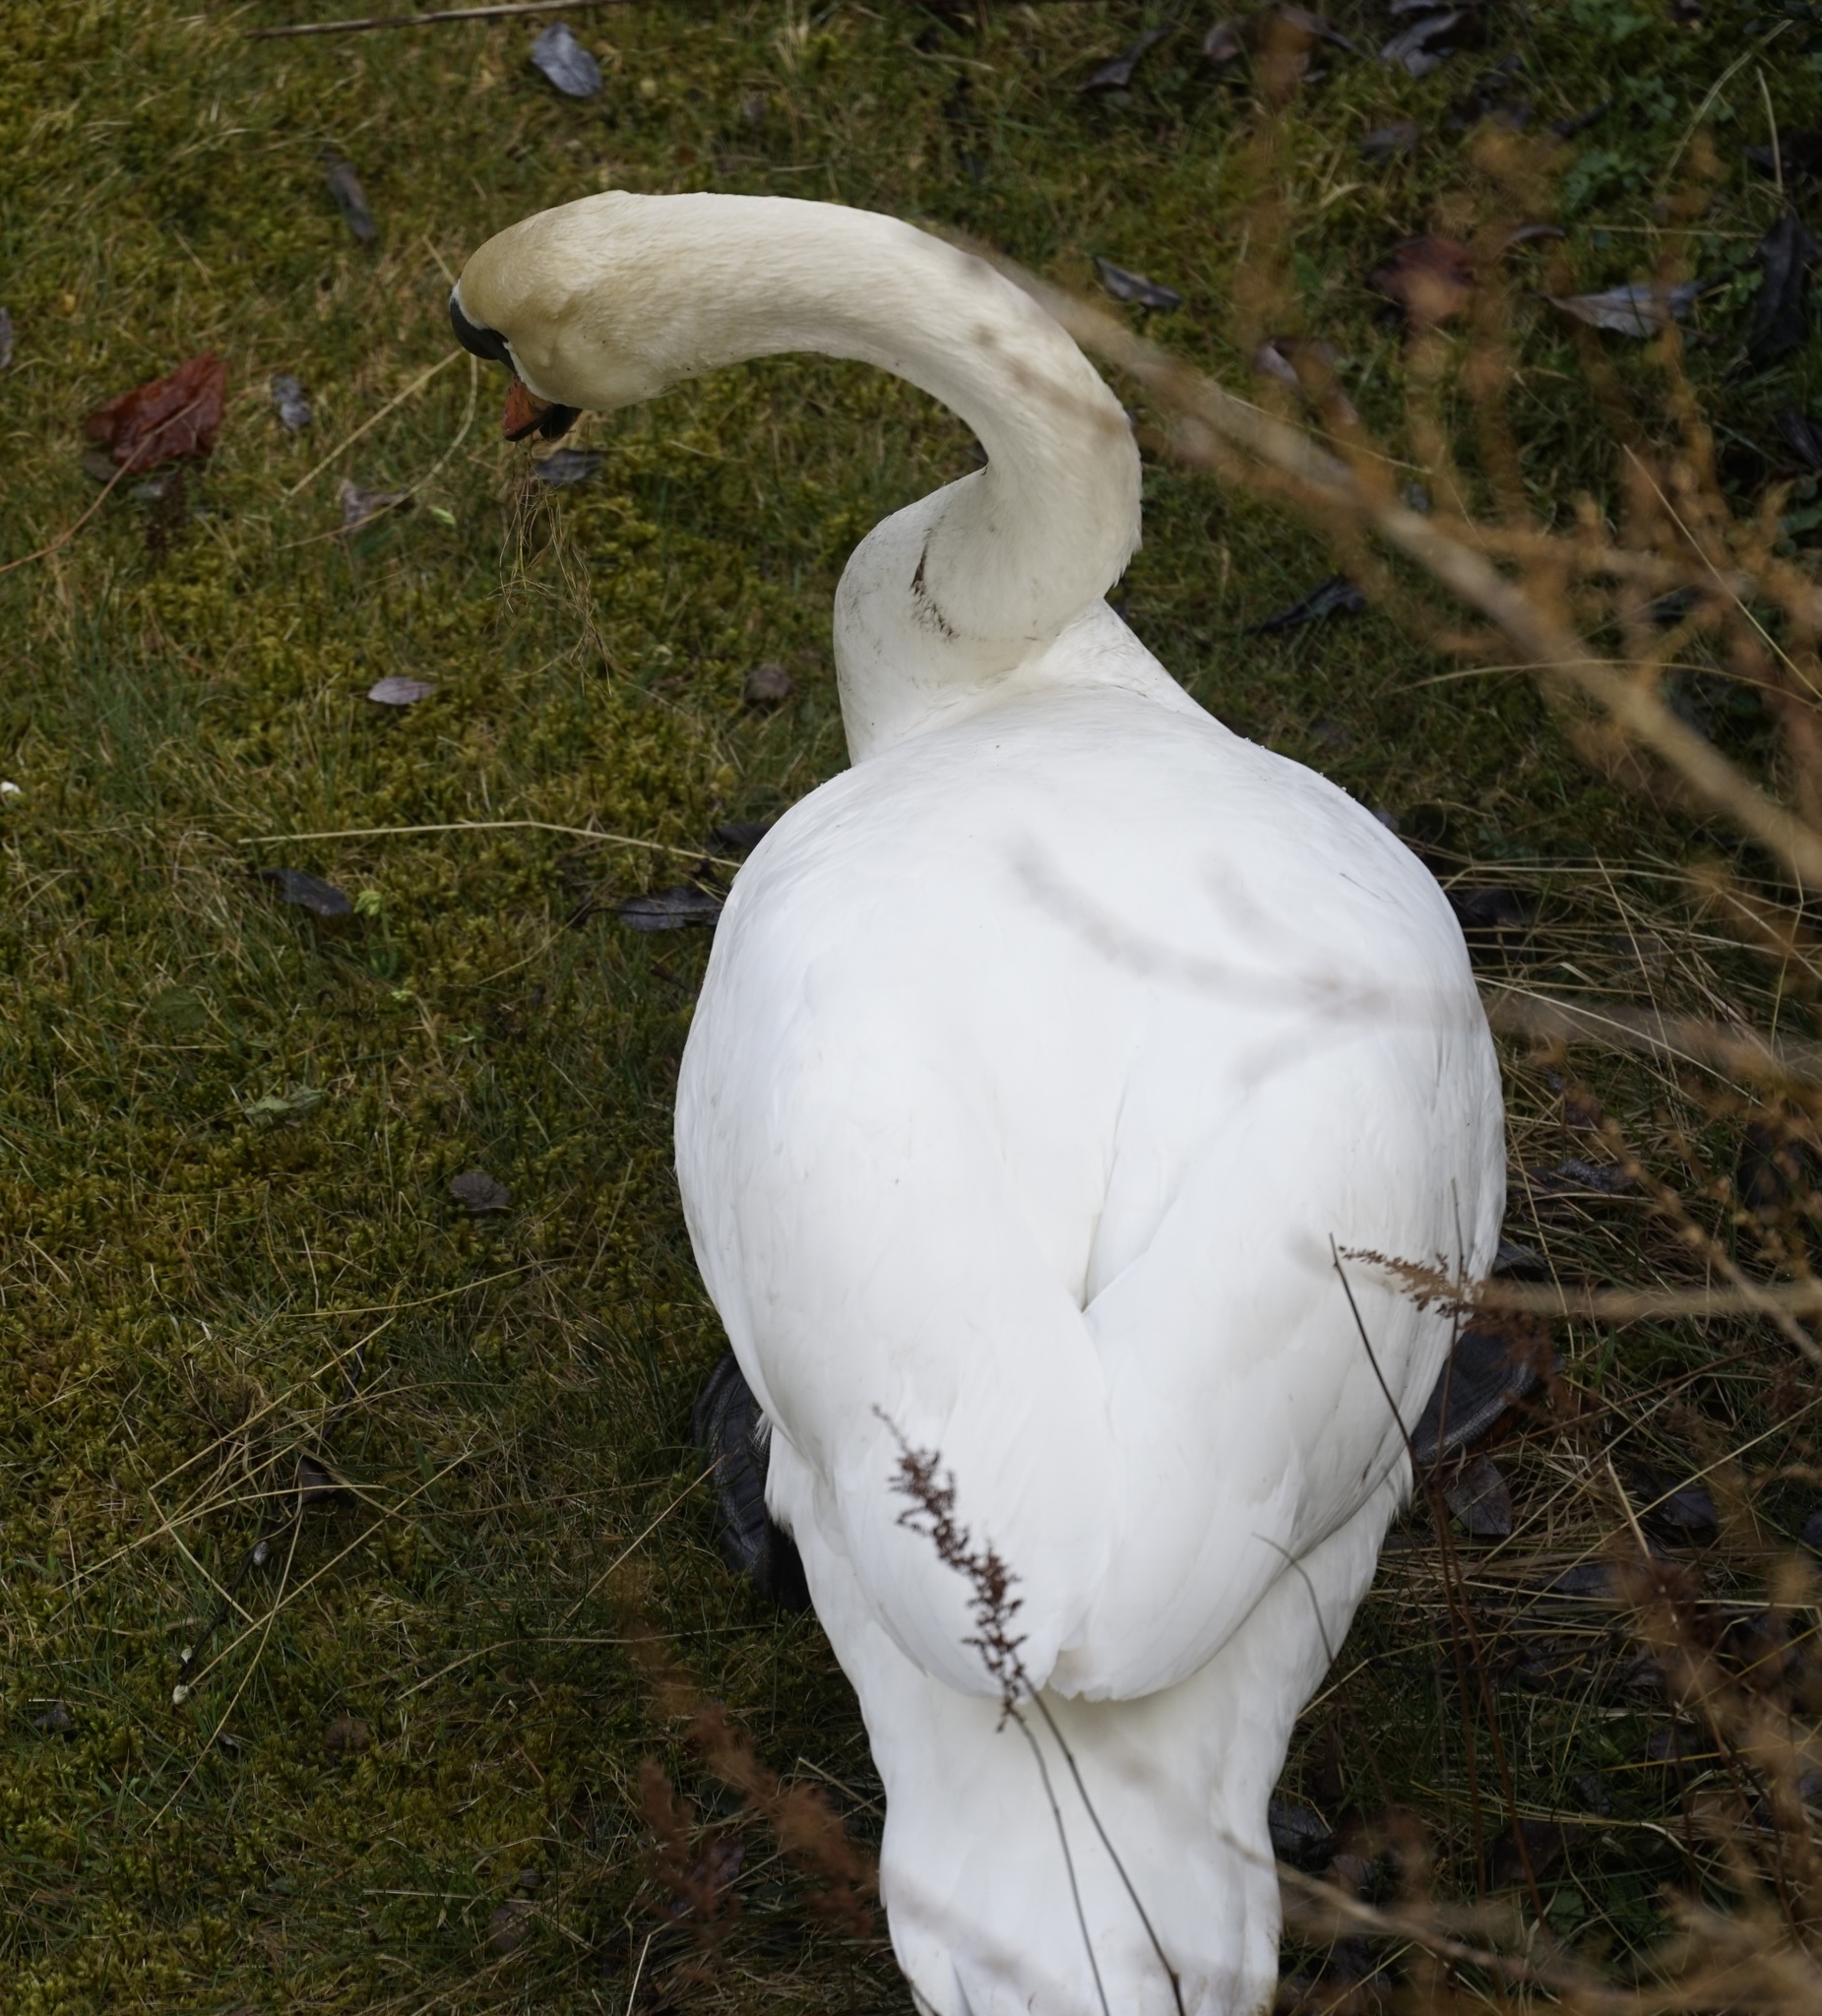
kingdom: Animalia
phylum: Chordata
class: Aves
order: Anseriformes
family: Anatidae
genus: Cygnus
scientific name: Cygnus olor
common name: Mute swan
